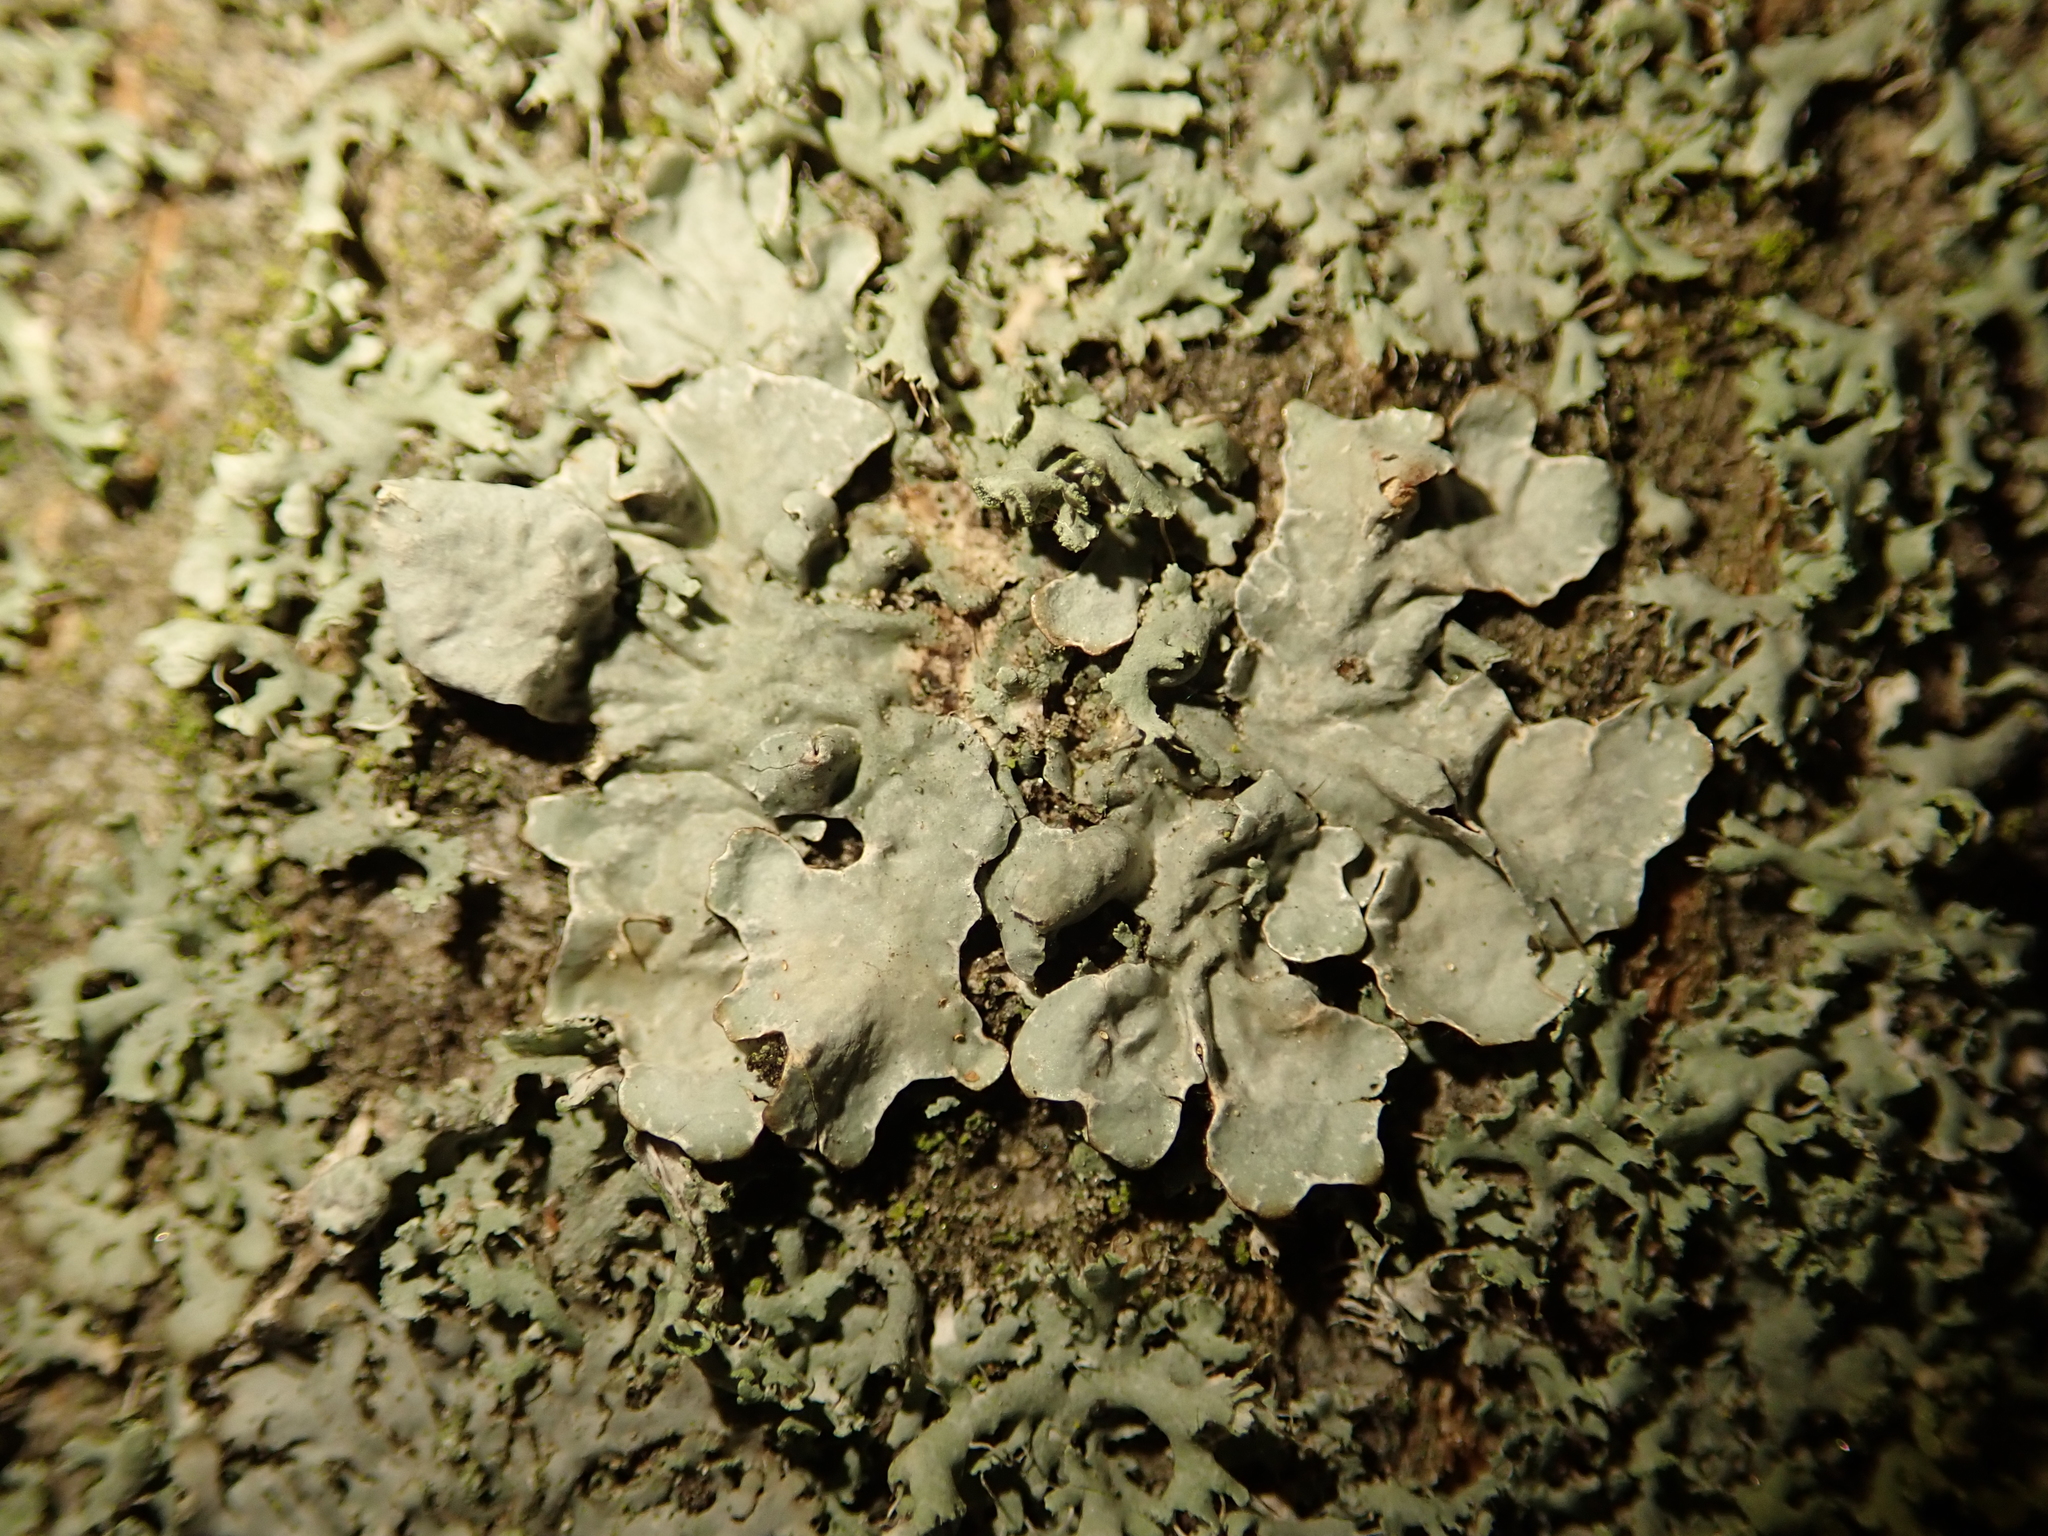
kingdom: Fungi
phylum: Ascomycota
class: Lecanoromycetes
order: Lecanorales
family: Parmeliaceae
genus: Parmelia
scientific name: Parmelia sulcata
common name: Netted shield lichen
